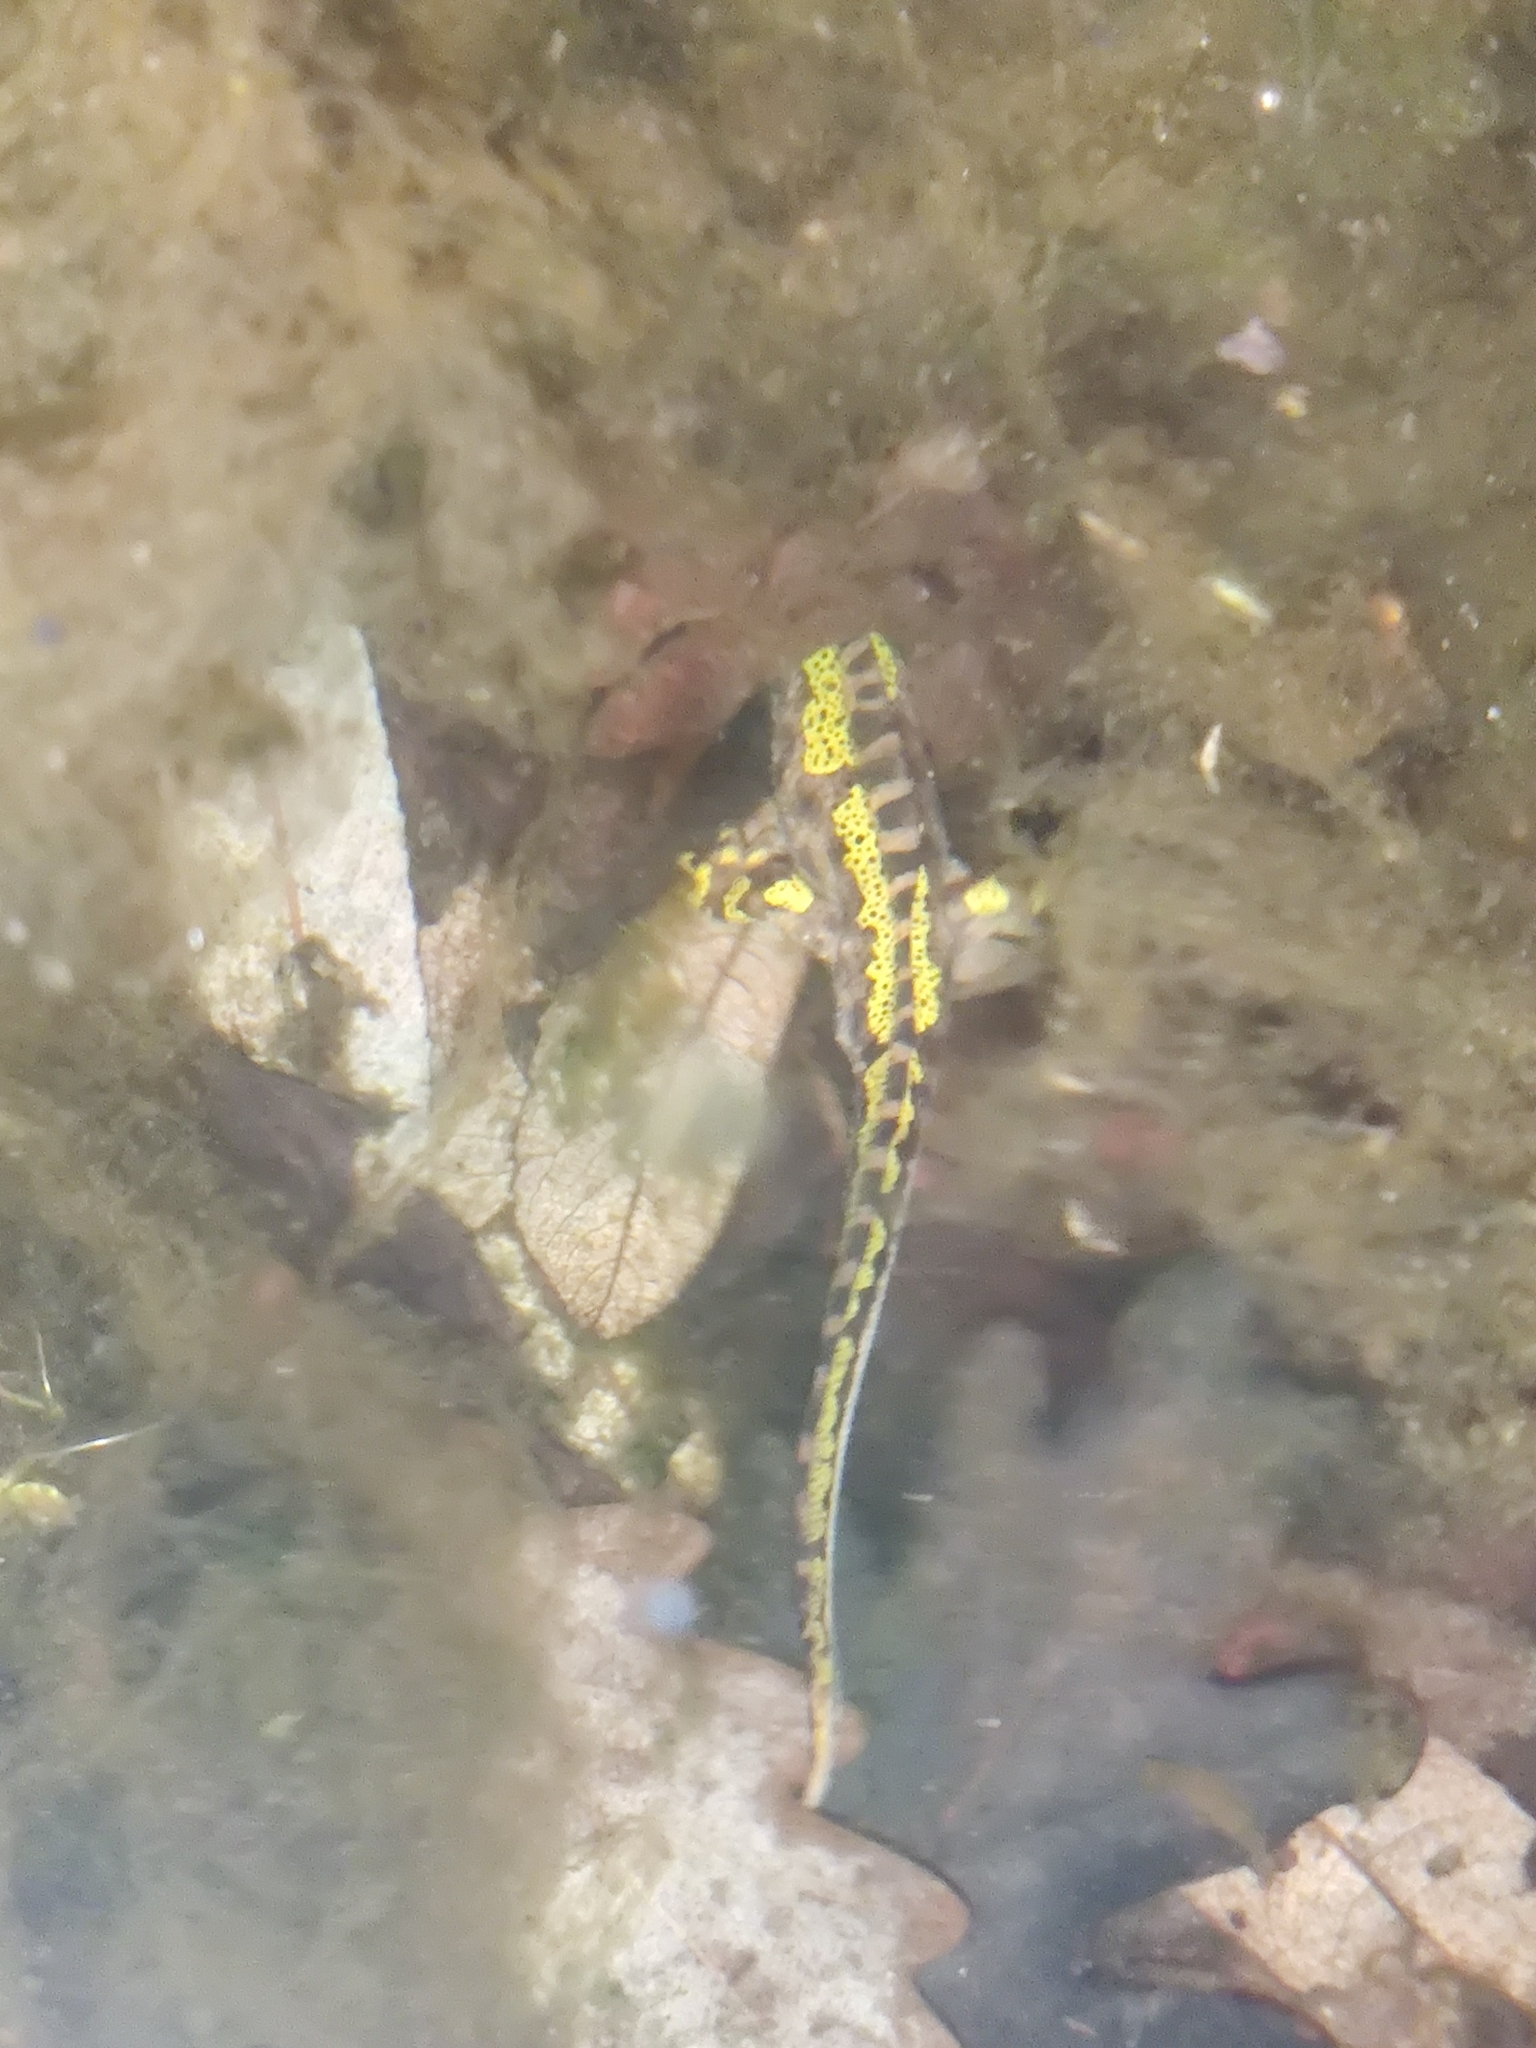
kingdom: Animalia
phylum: Chordata
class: Amphibia
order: Caudata
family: Salamandridae
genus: Triturus
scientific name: Triturus marmoratus
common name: Marbled newt
